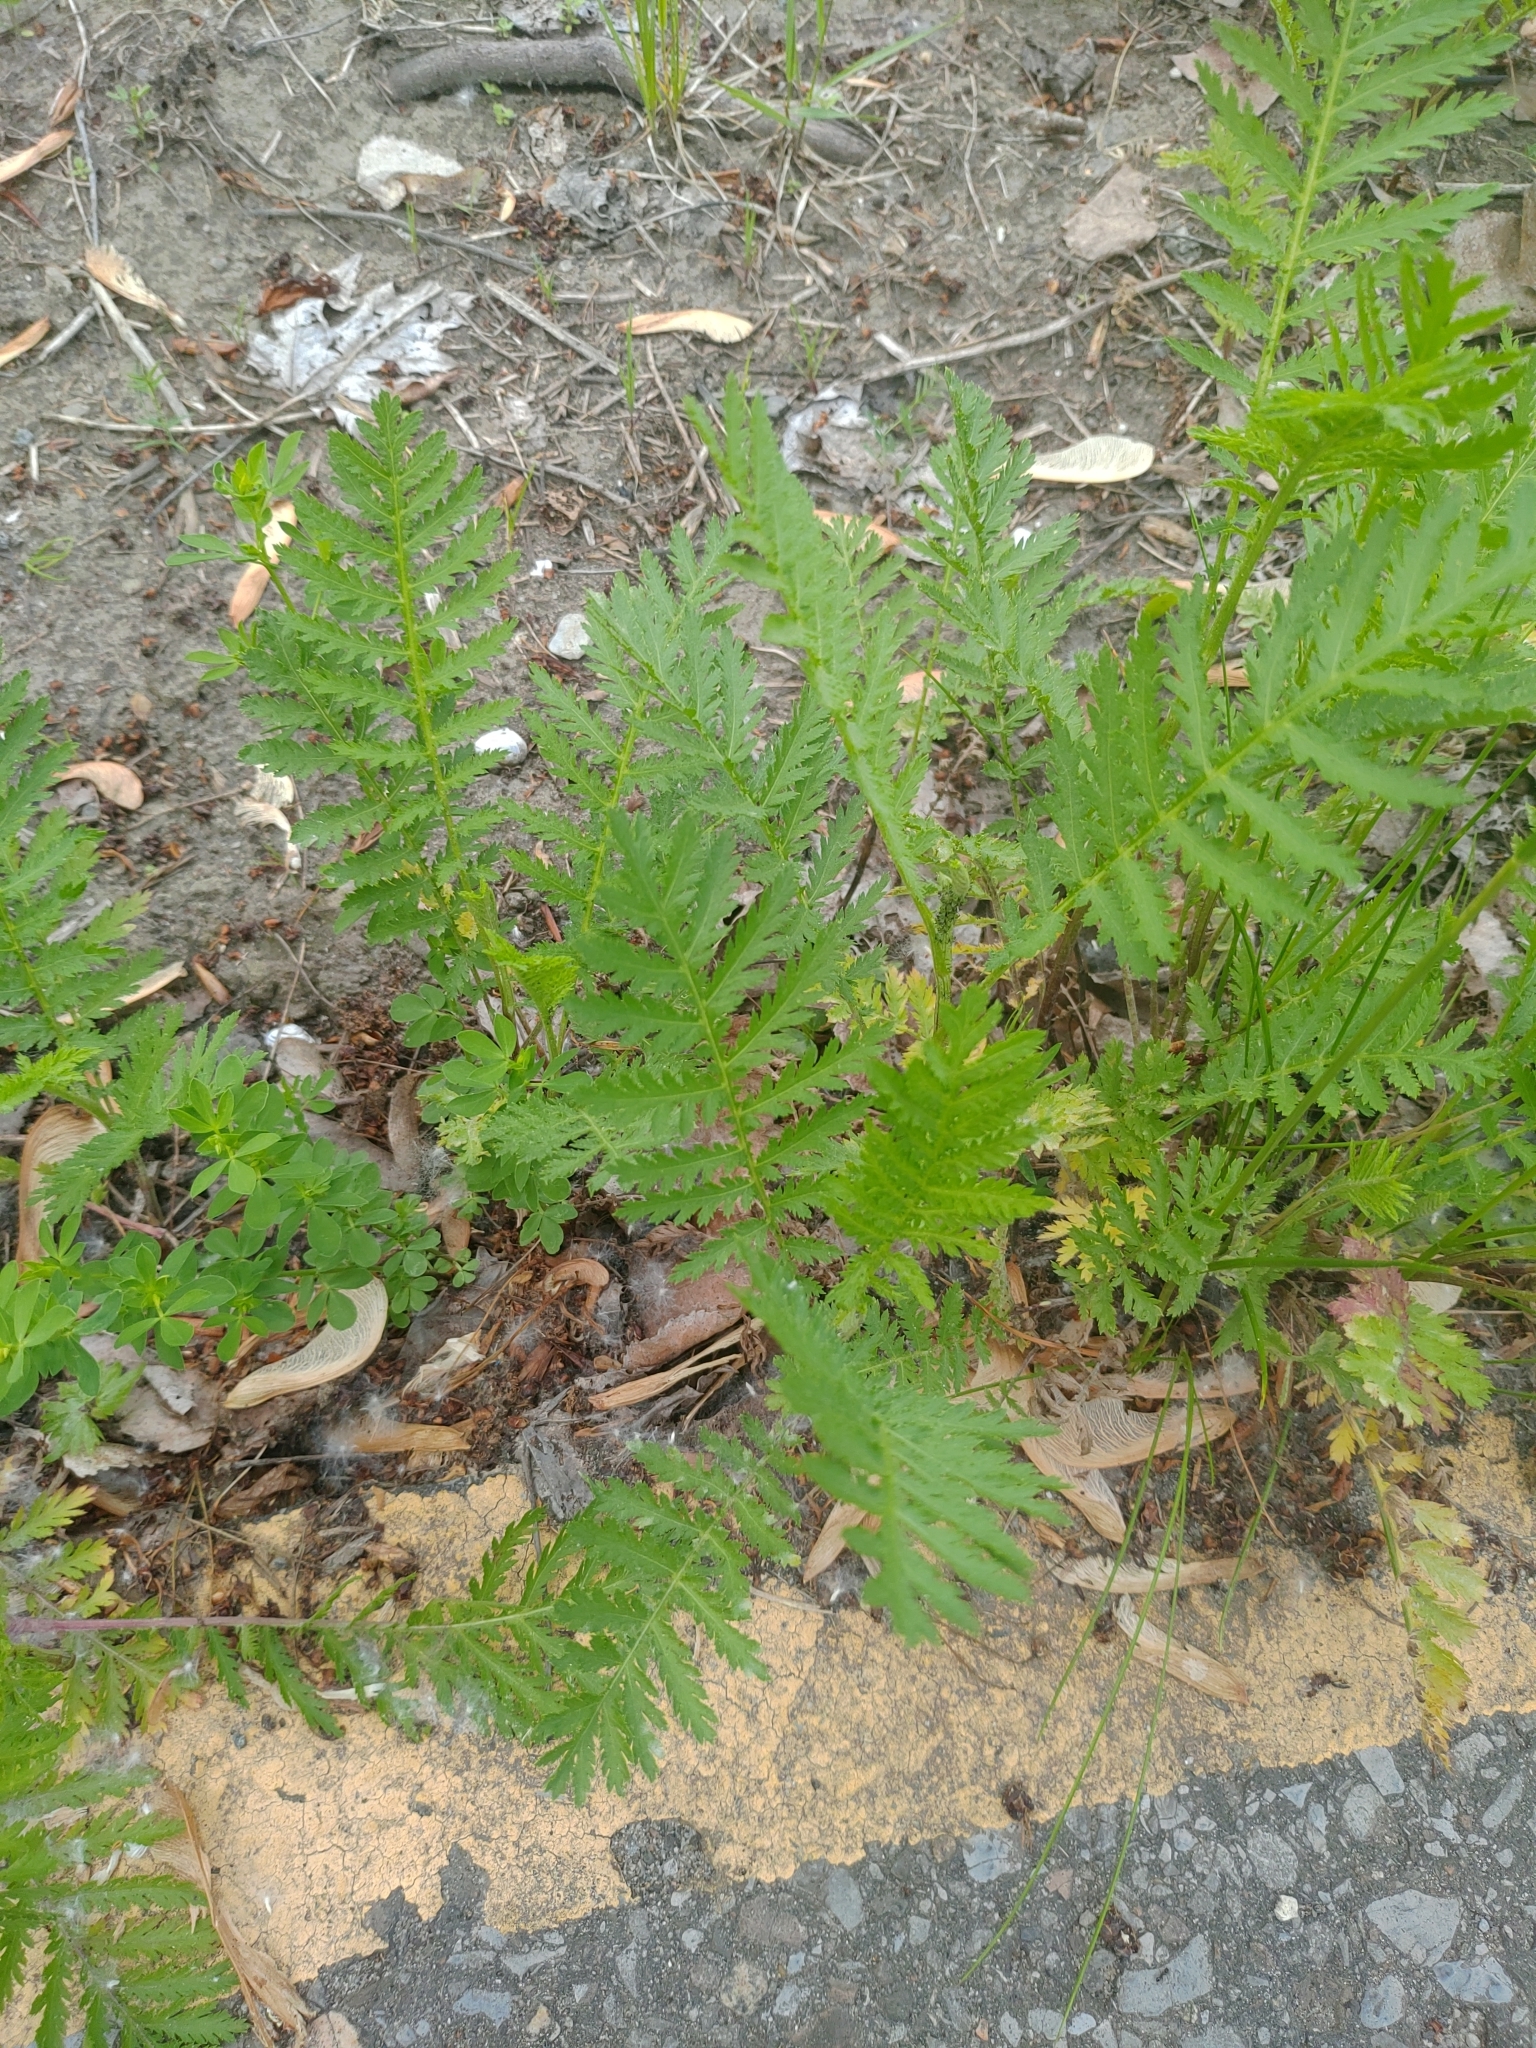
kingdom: Plantae
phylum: Tracheophyta
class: Magnoliopsida
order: Asterales
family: Asteraceae
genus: Tanacetum
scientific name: Tanacetum vulgare
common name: Common tansy
